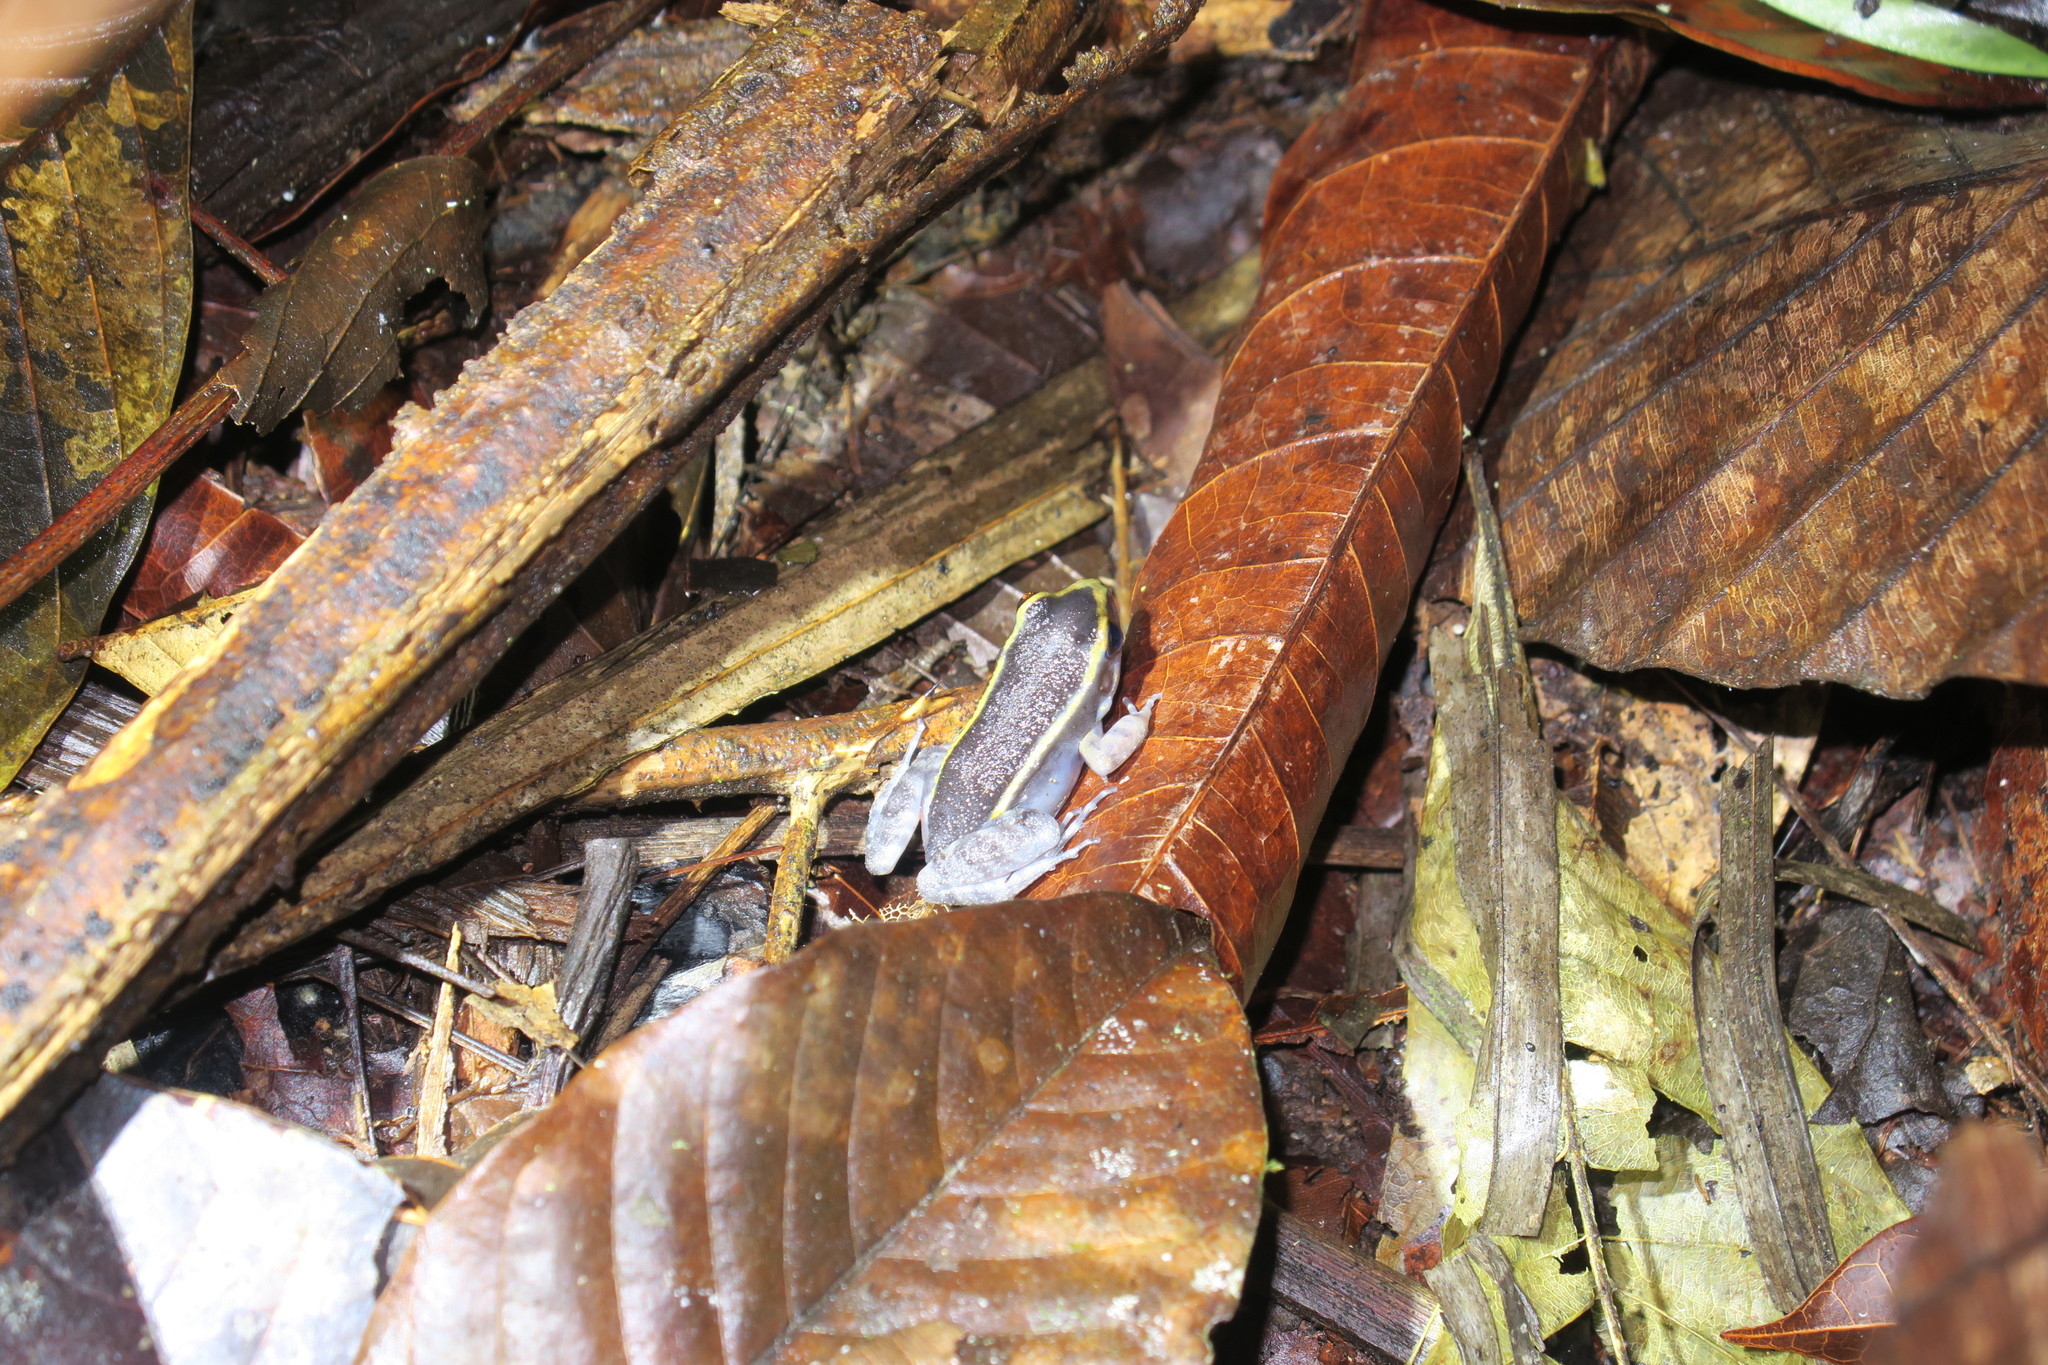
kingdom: Animalia
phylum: Chordata
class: Amphibia
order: Anura
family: Leptodactylidae
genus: Lithodytes
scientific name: Lithodytes lineatus
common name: Gold-striped frog
